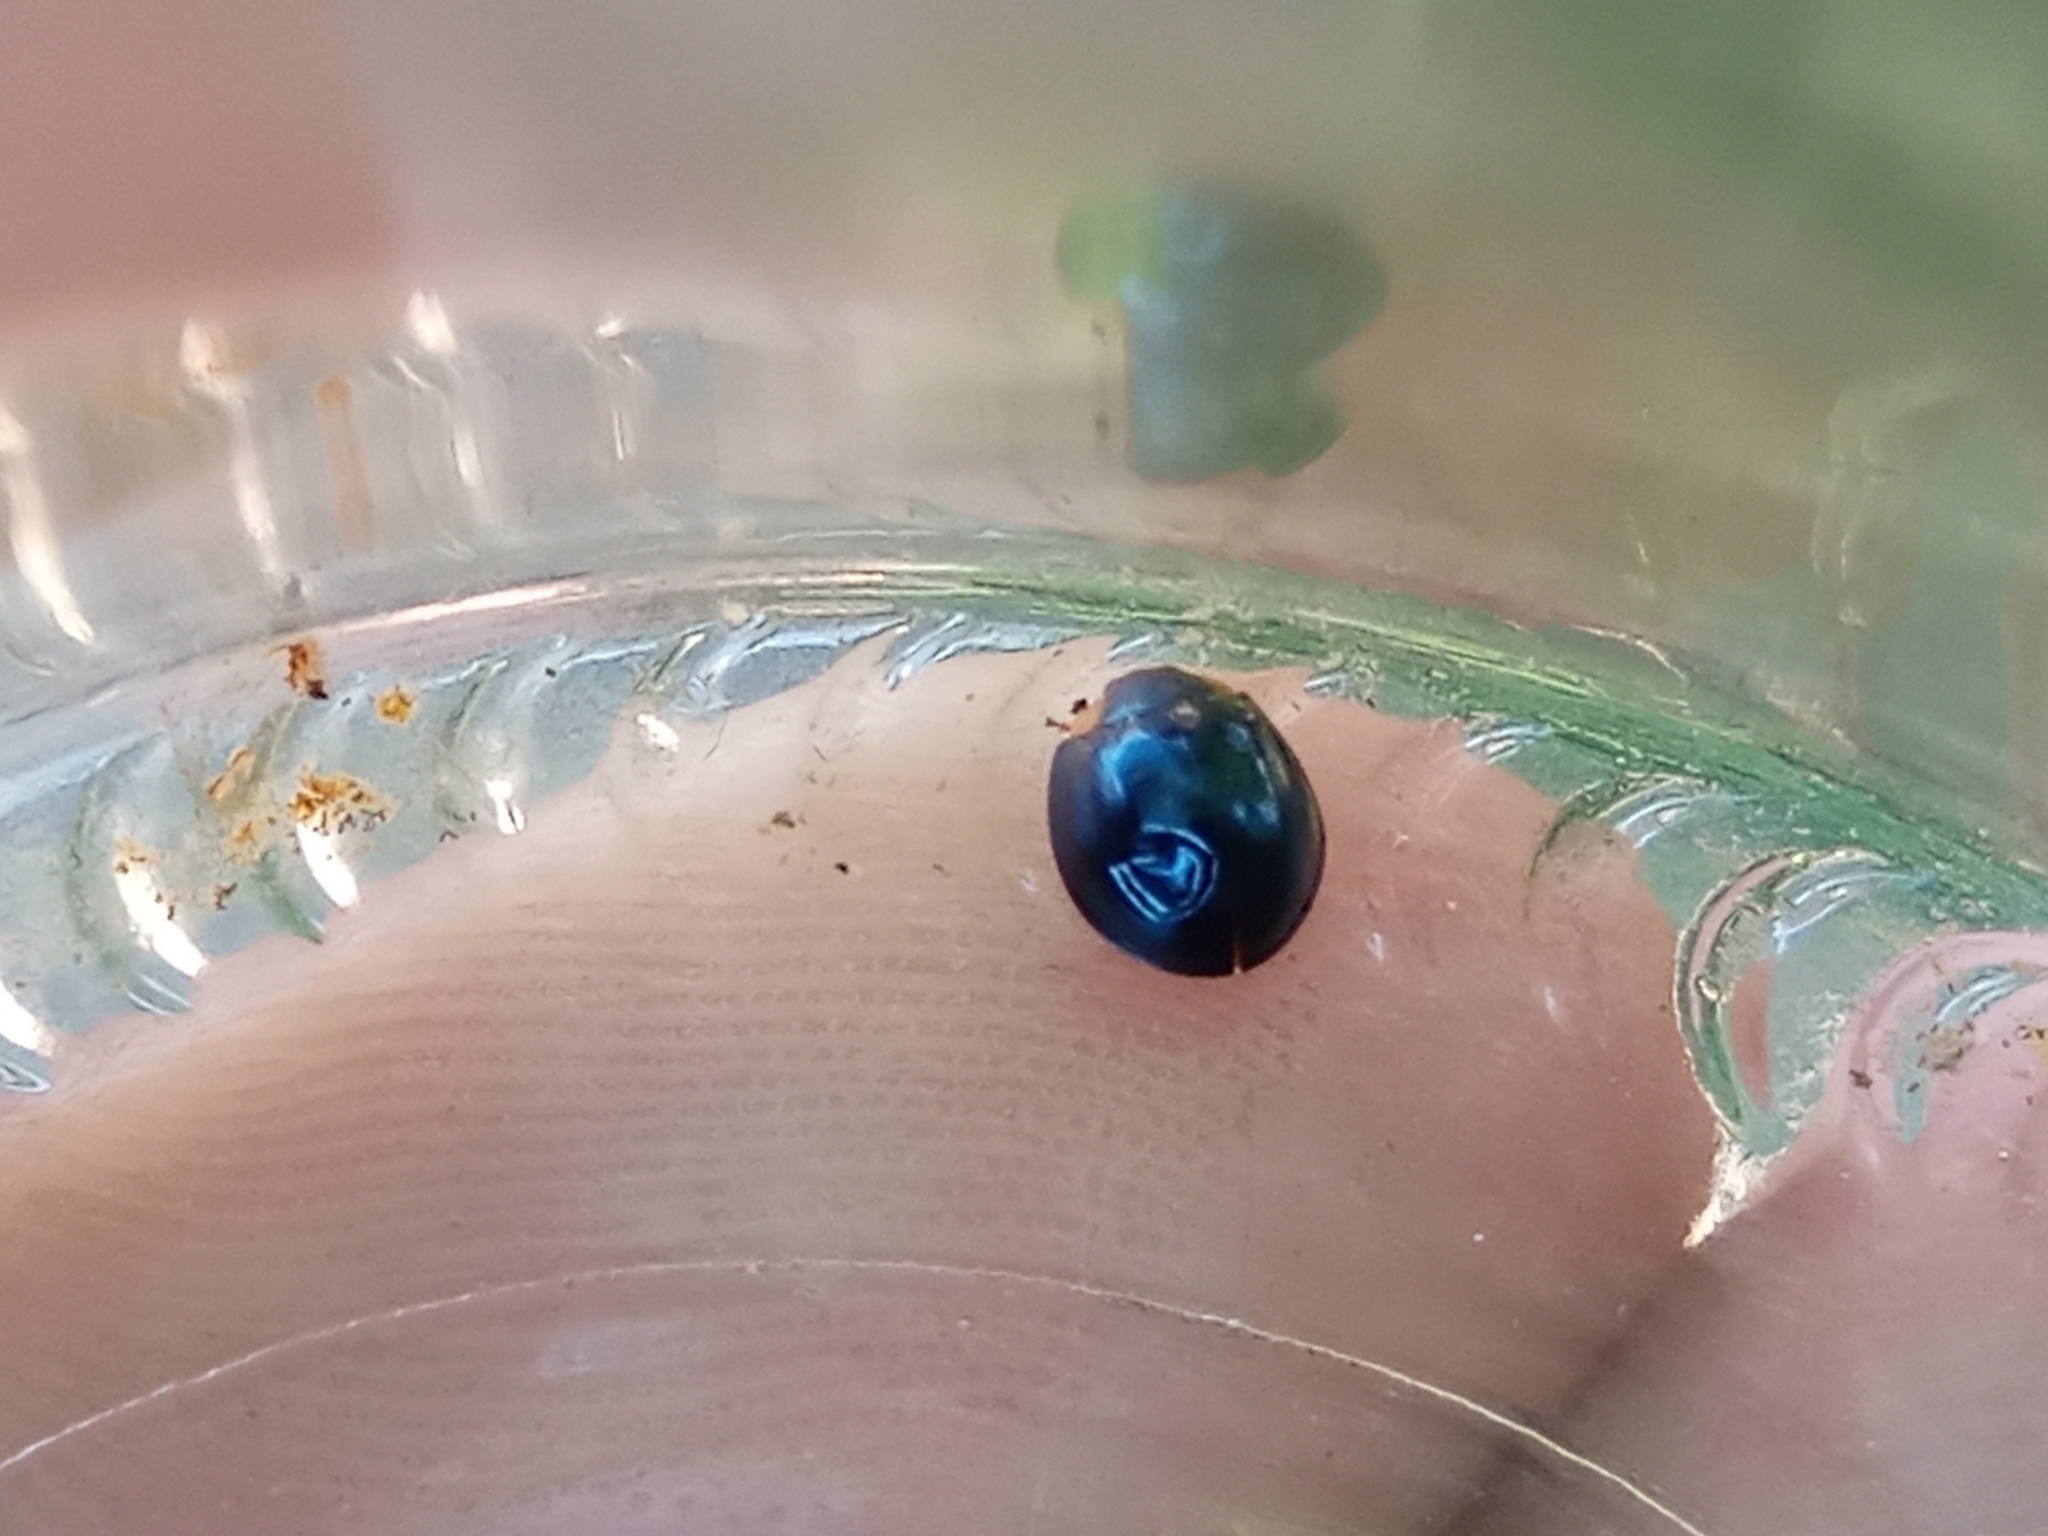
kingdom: Animalia
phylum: Arthropoda
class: Insecta
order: Coleoptera
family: Coccinellidae
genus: Curinus
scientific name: Curinus coeruleus
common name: Ladybird beetle
